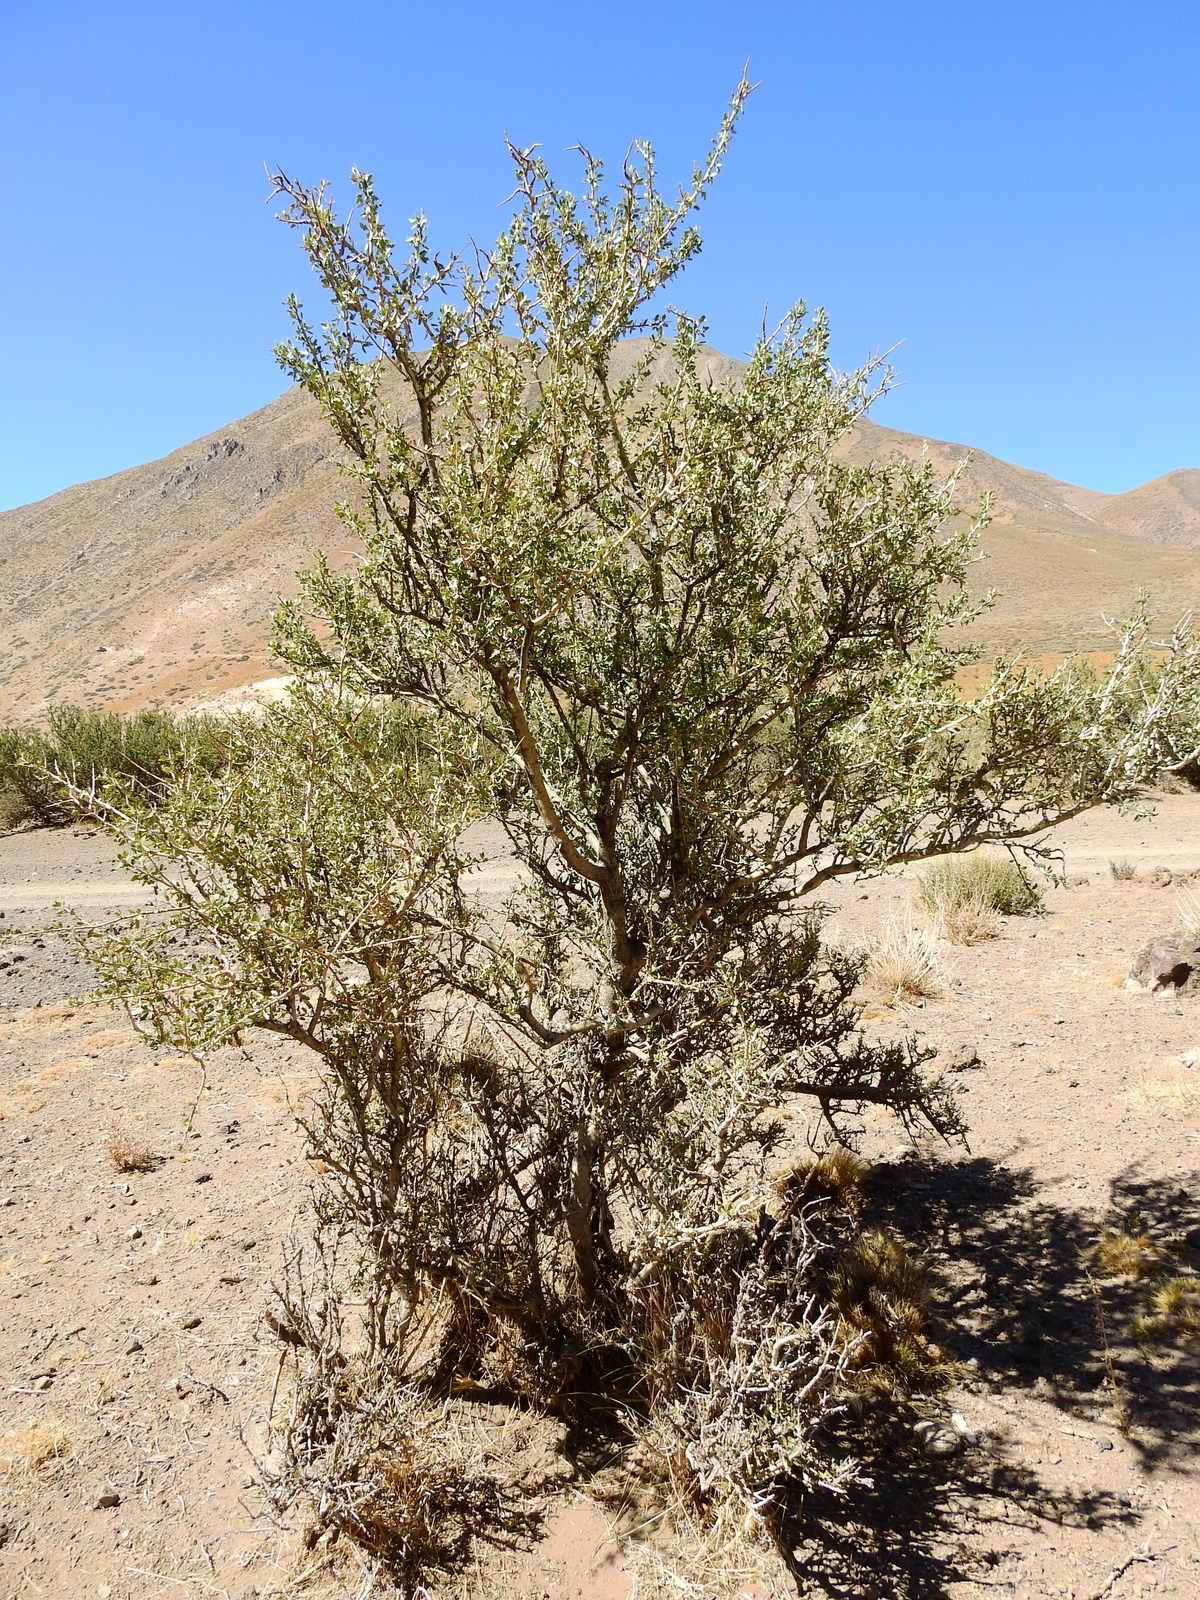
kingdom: Plantae
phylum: Tracheophyta
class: Magnoliopsida
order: Sapindales
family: Anacardiaceae
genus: Schinus
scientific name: Schinus odonellii
